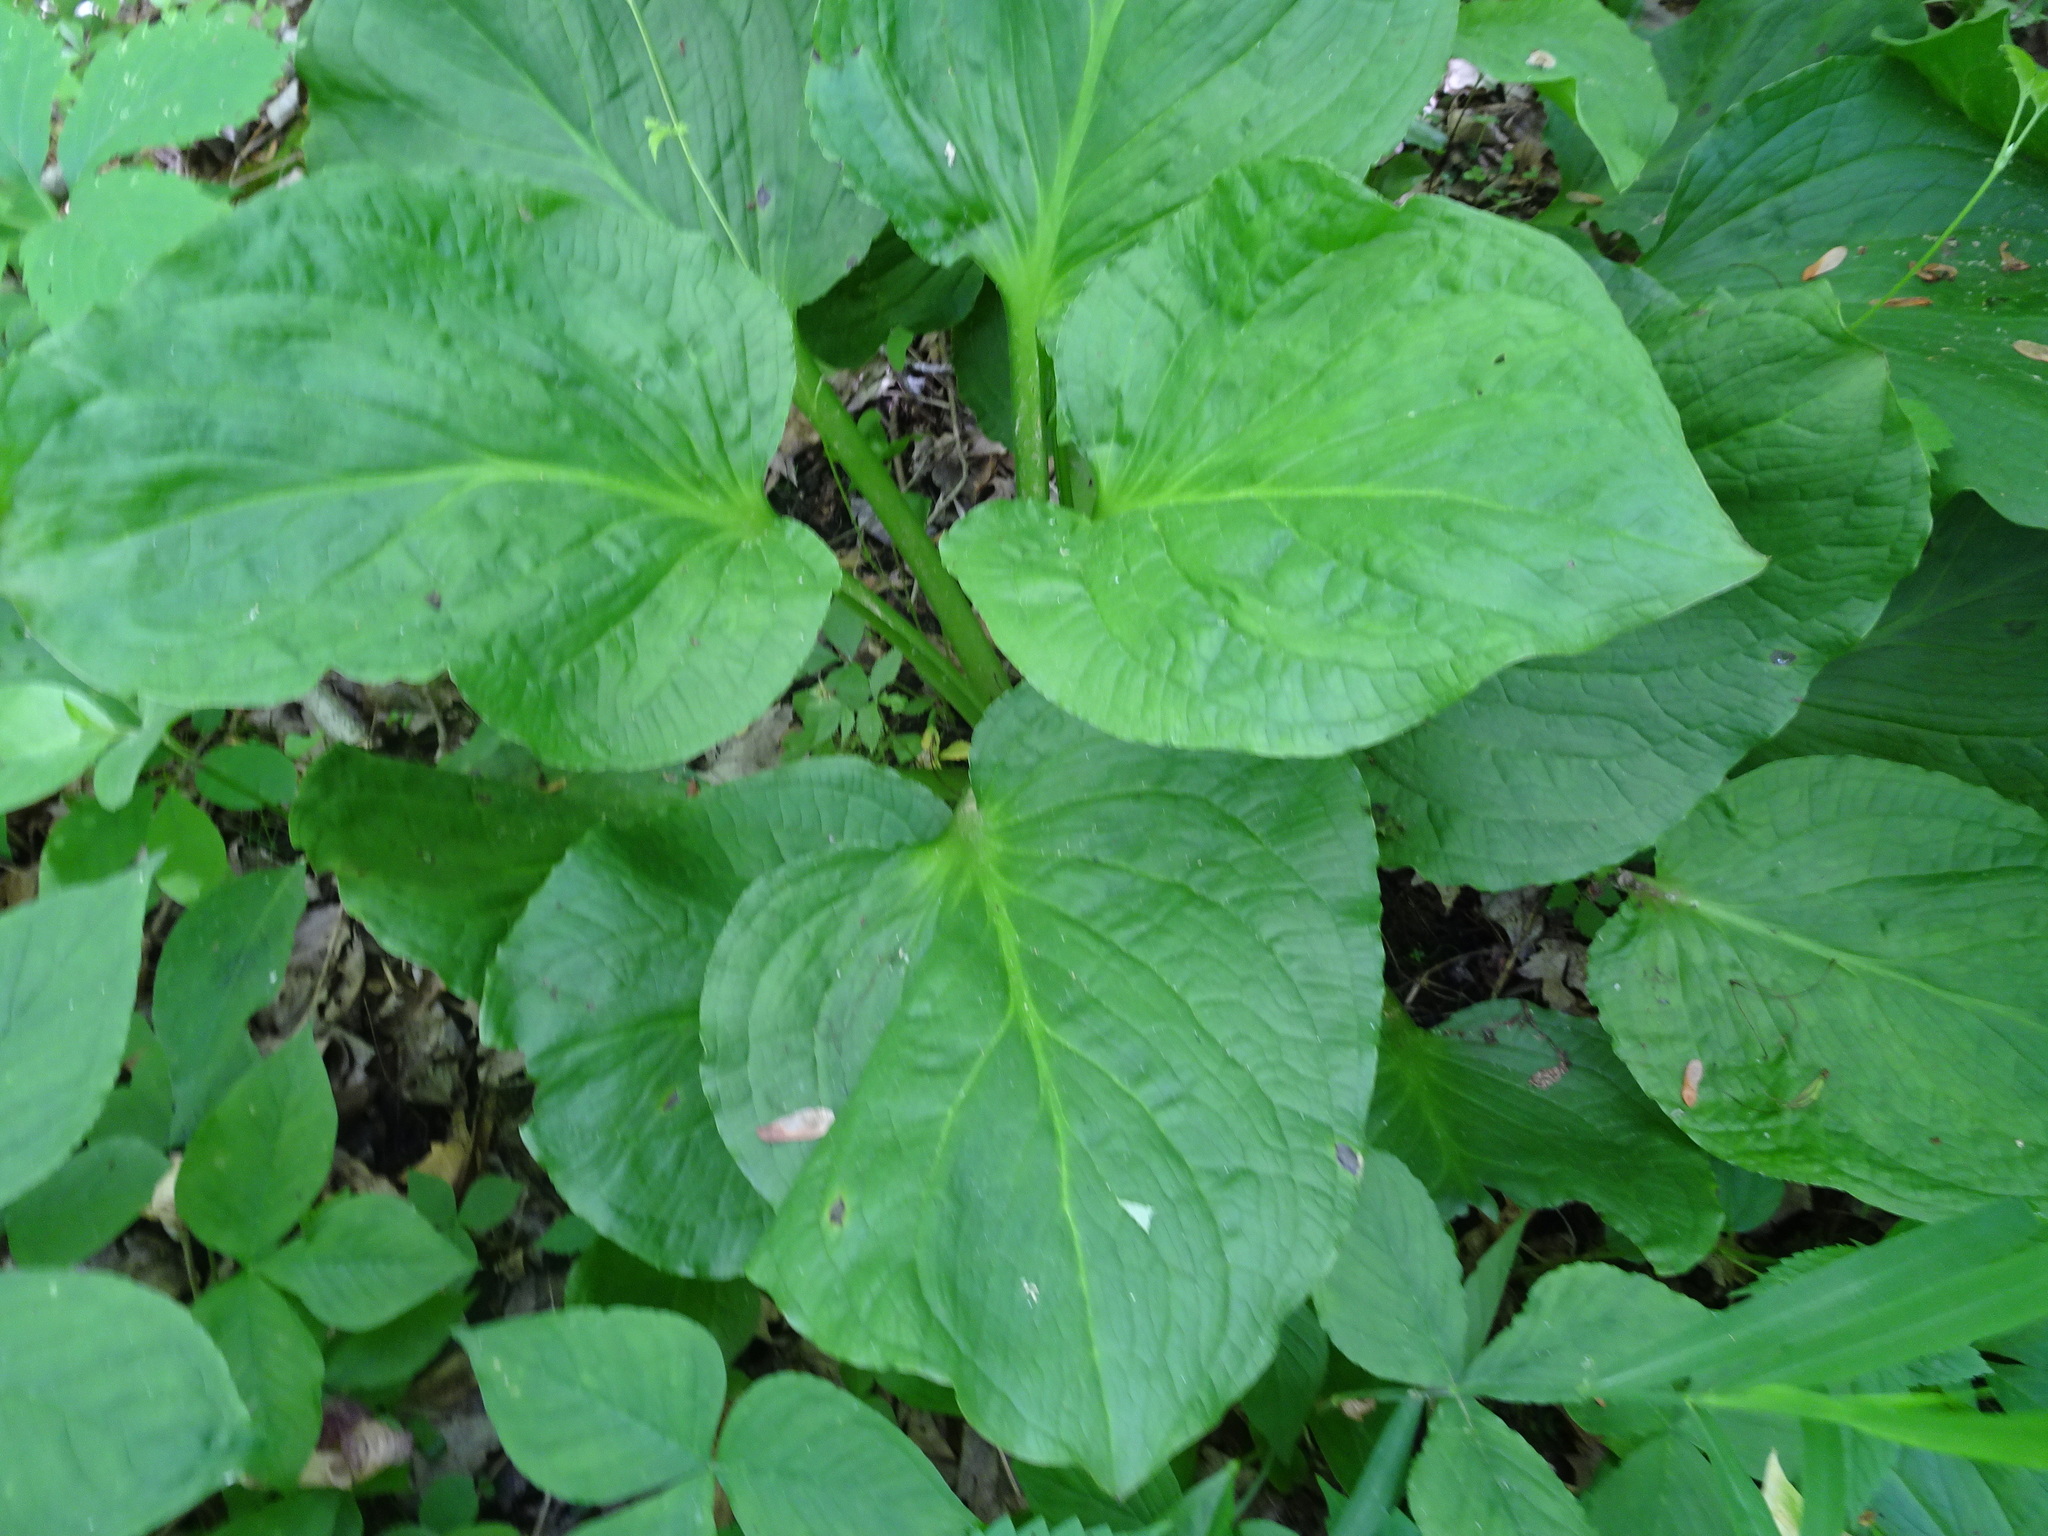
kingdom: Plantae
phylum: Tracheophyta
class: Liliopsida
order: Alismatales
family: Araceae
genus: Symplocarpus
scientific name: Symplocarpus foetidus
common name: Eastern skunk cabbage
